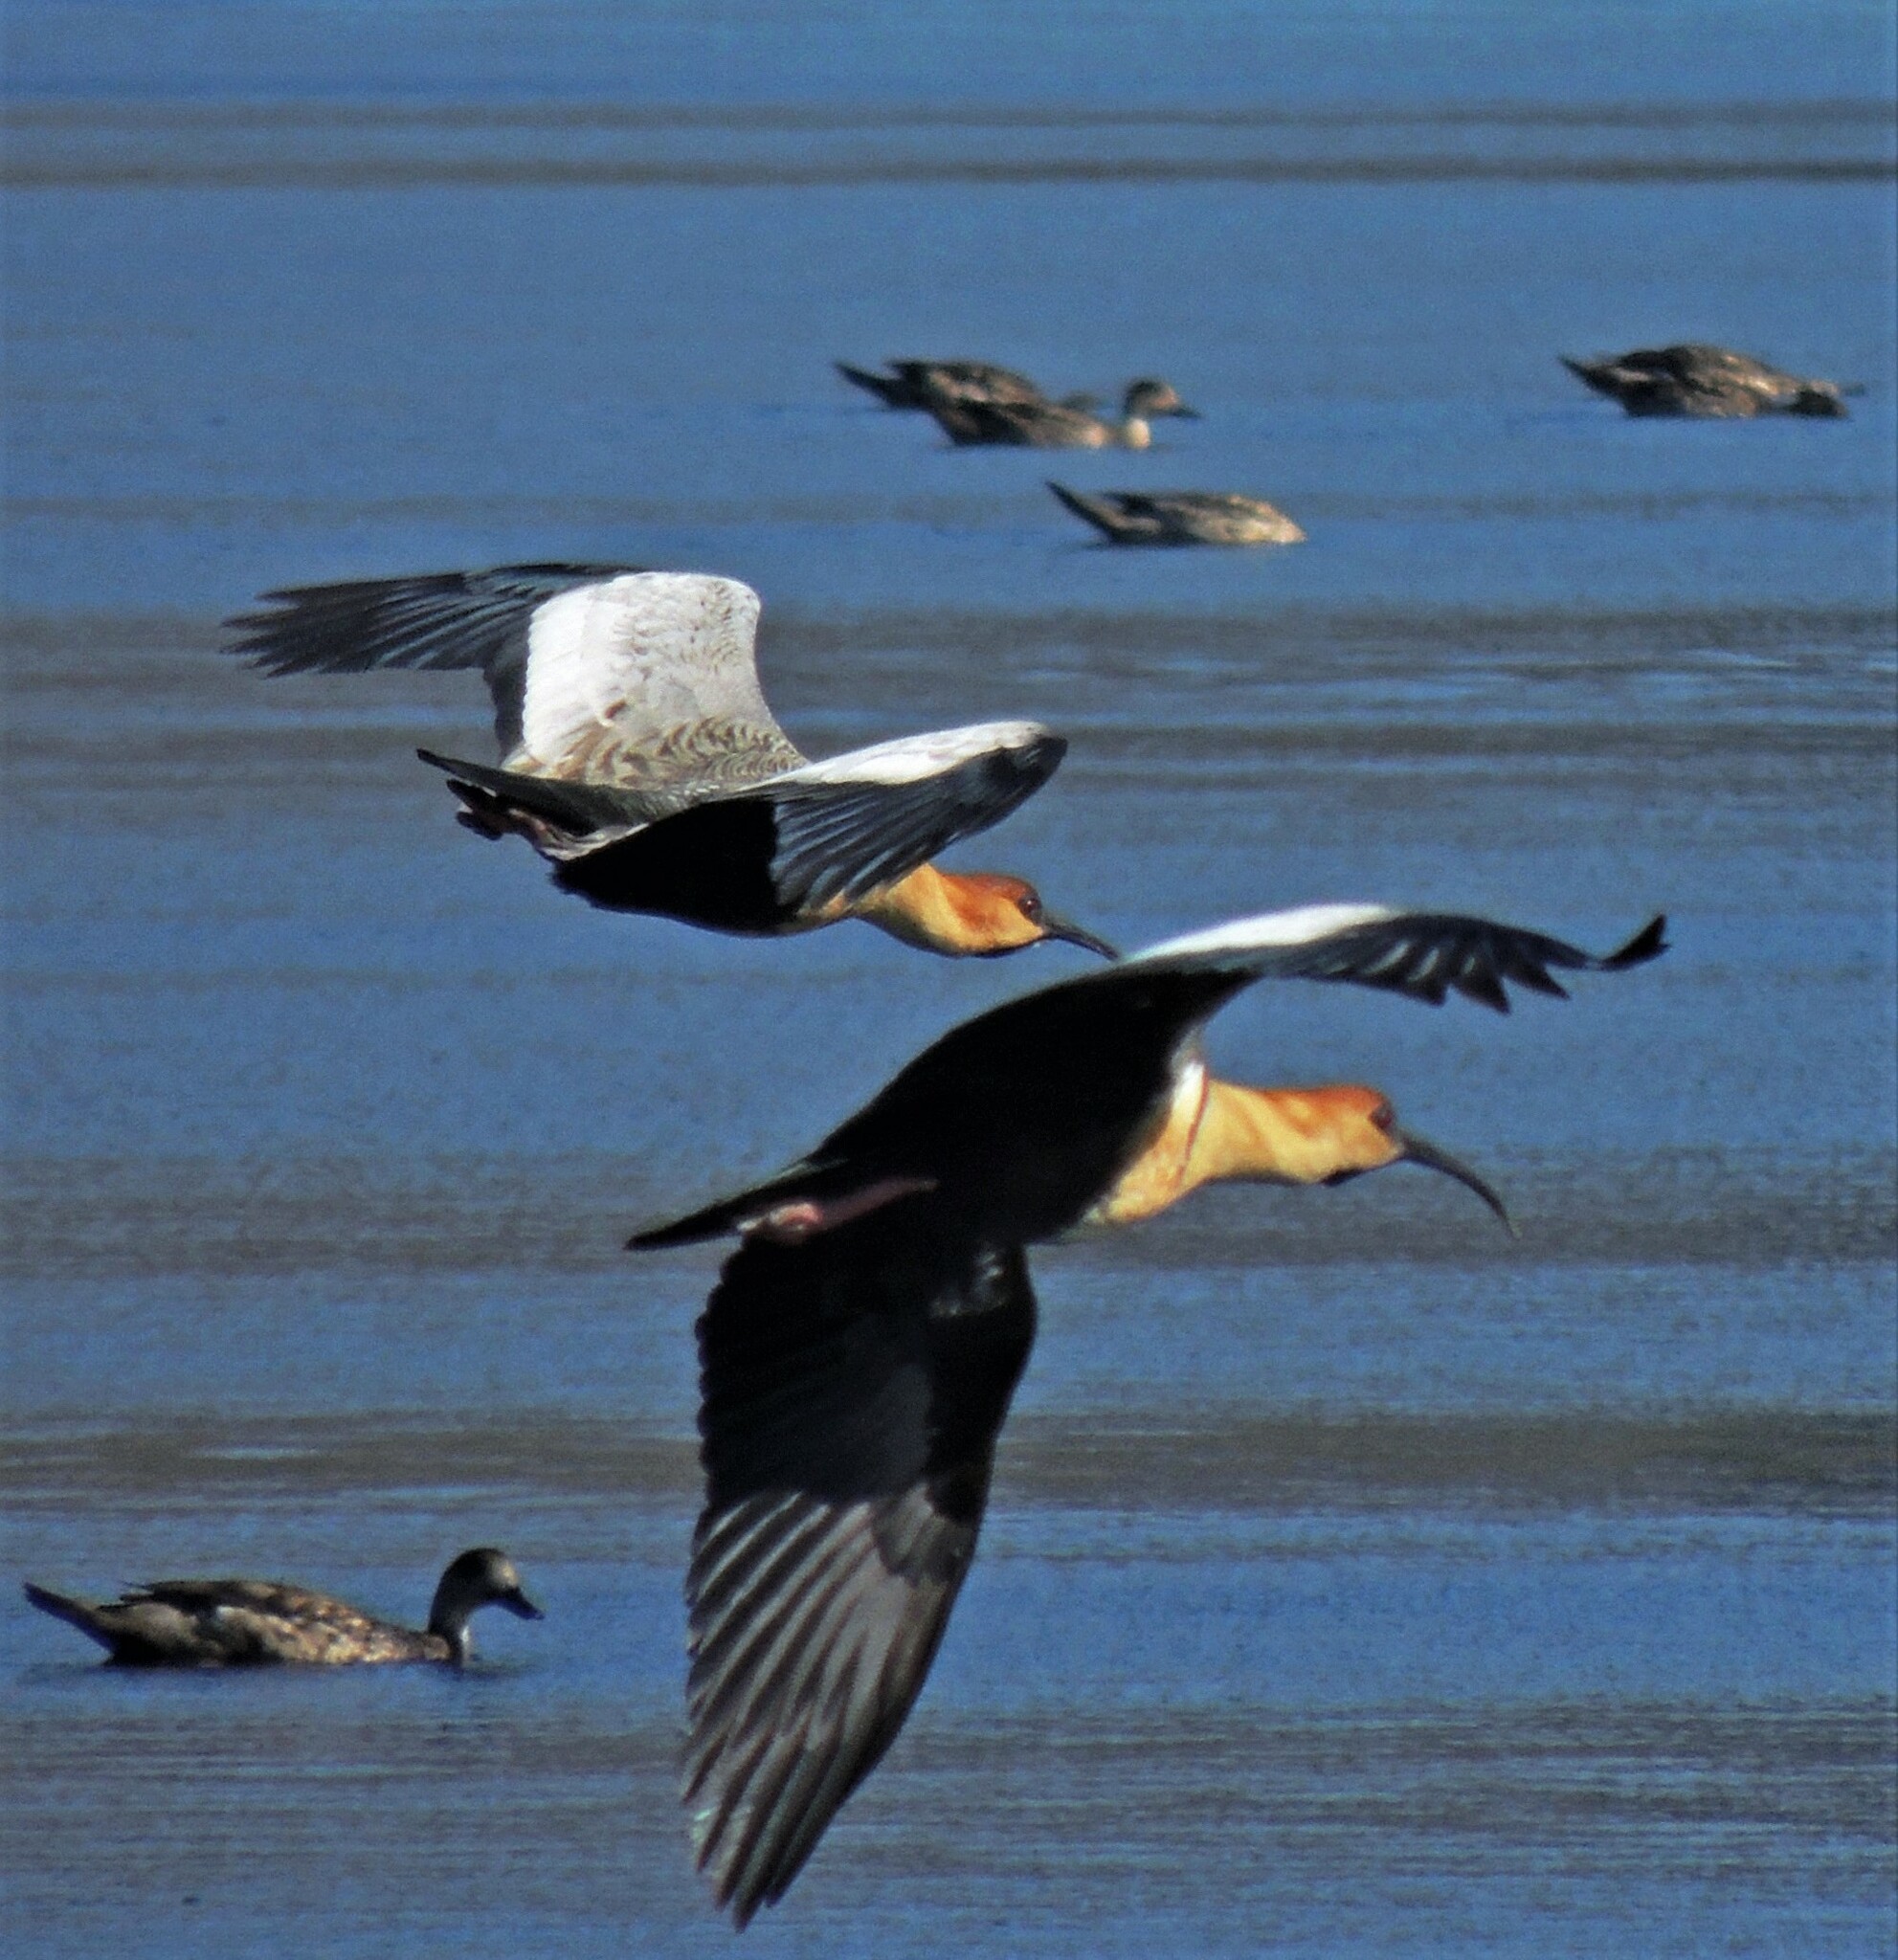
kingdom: Animalia
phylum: Chordata
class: Aves
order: Pelecaniformes
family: Threskiornithidae
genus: Theristicus
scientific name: Theristicus melanopis
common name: Black-faced ibis
